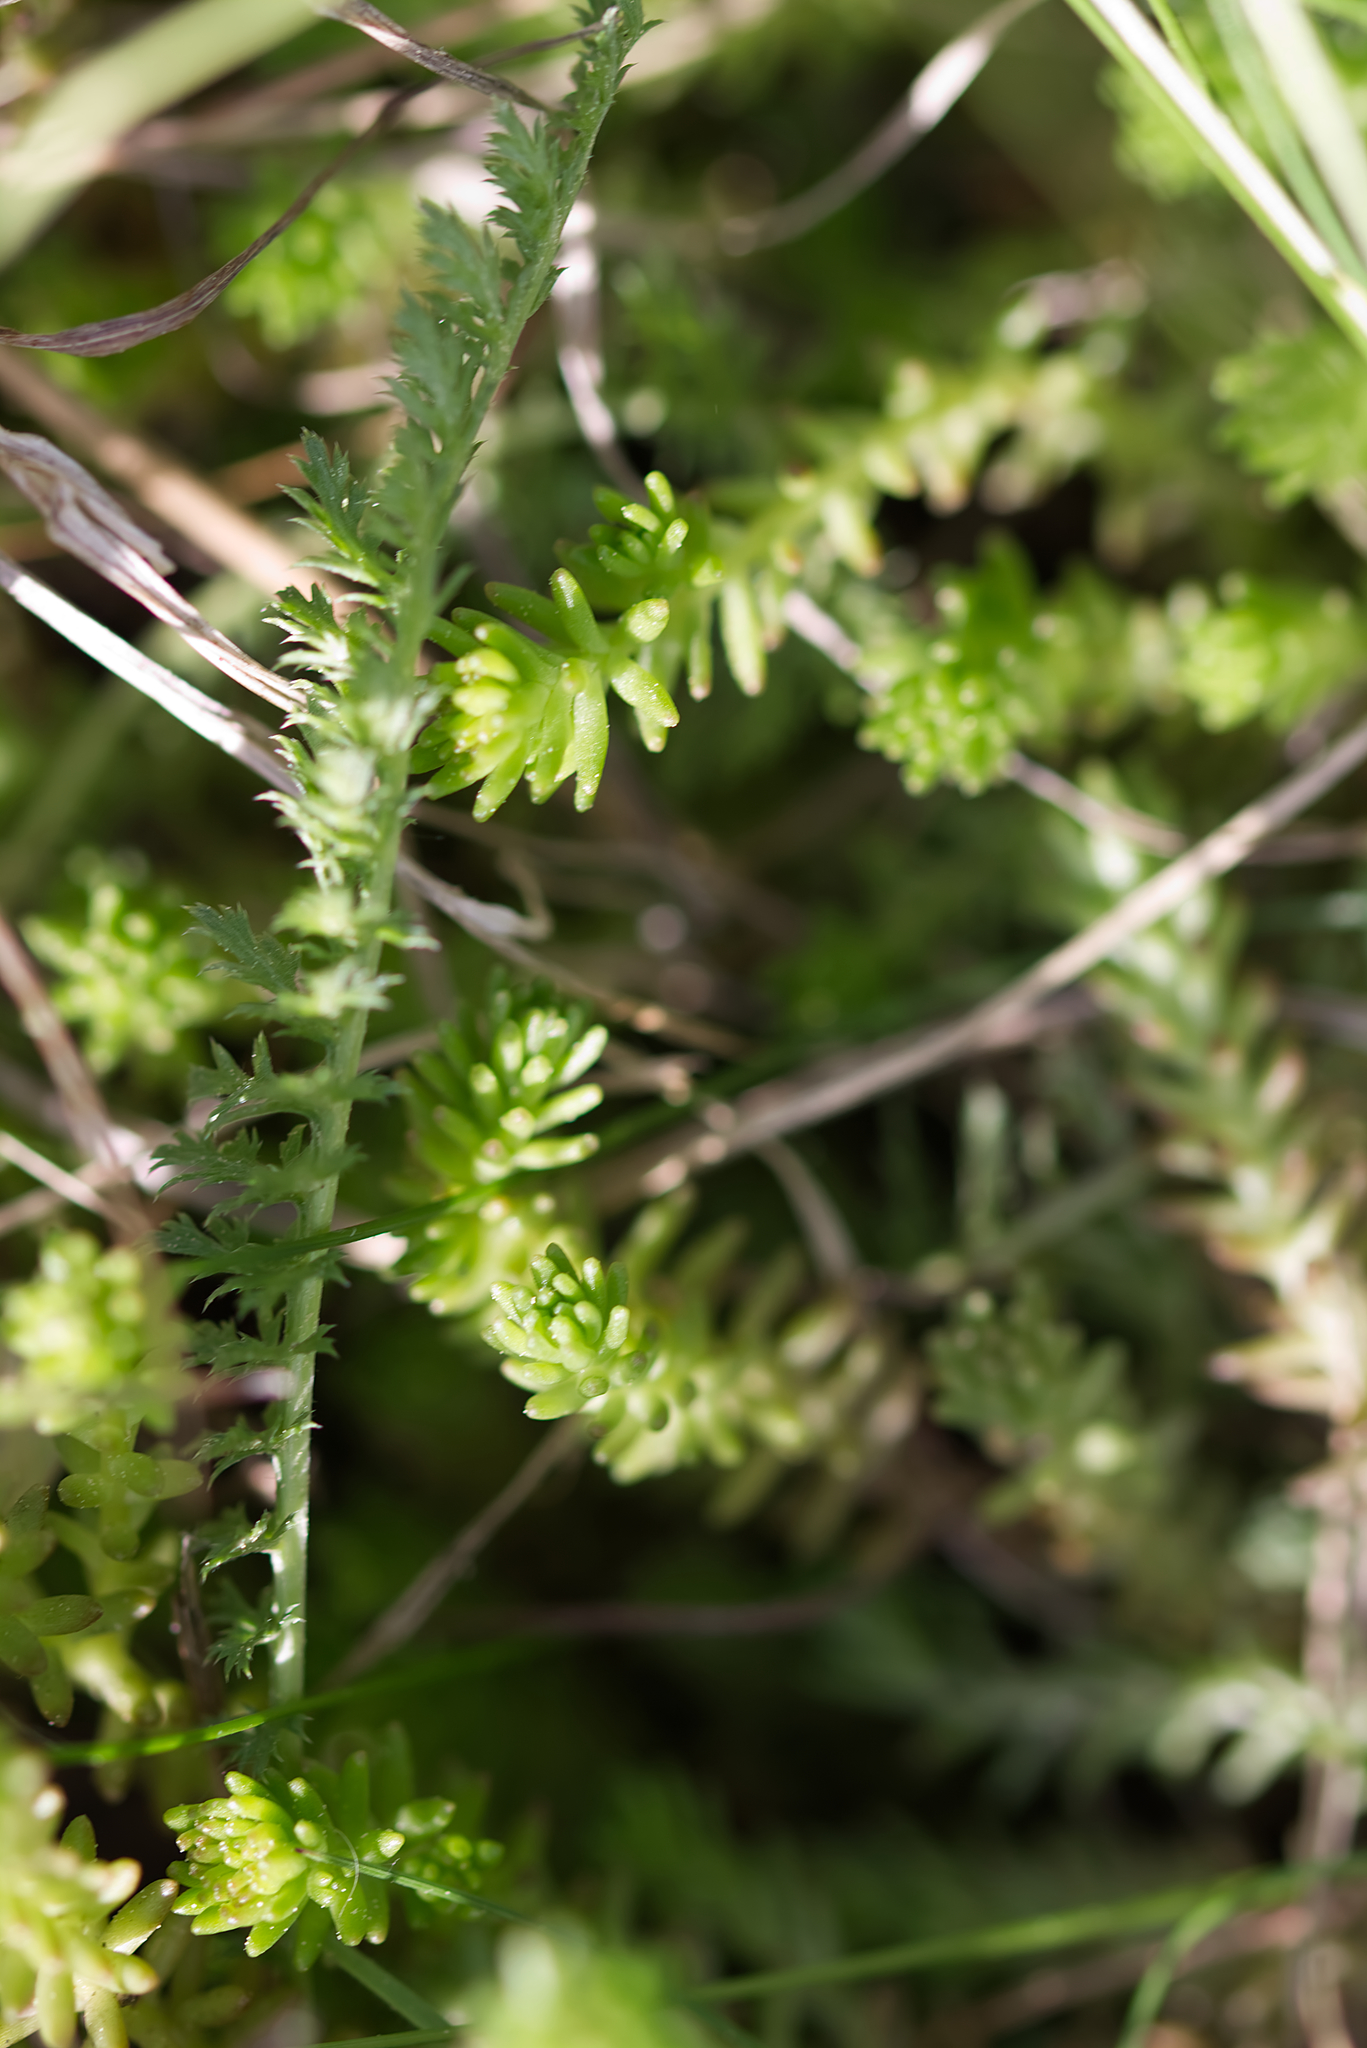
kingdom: Plantae
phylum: Tracheophyta
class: Magnoliopsida
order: Saxifragales
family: Crassulaceae
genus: Sedum
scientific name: Sedum sexangulare
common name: Tasteless stonecrop
